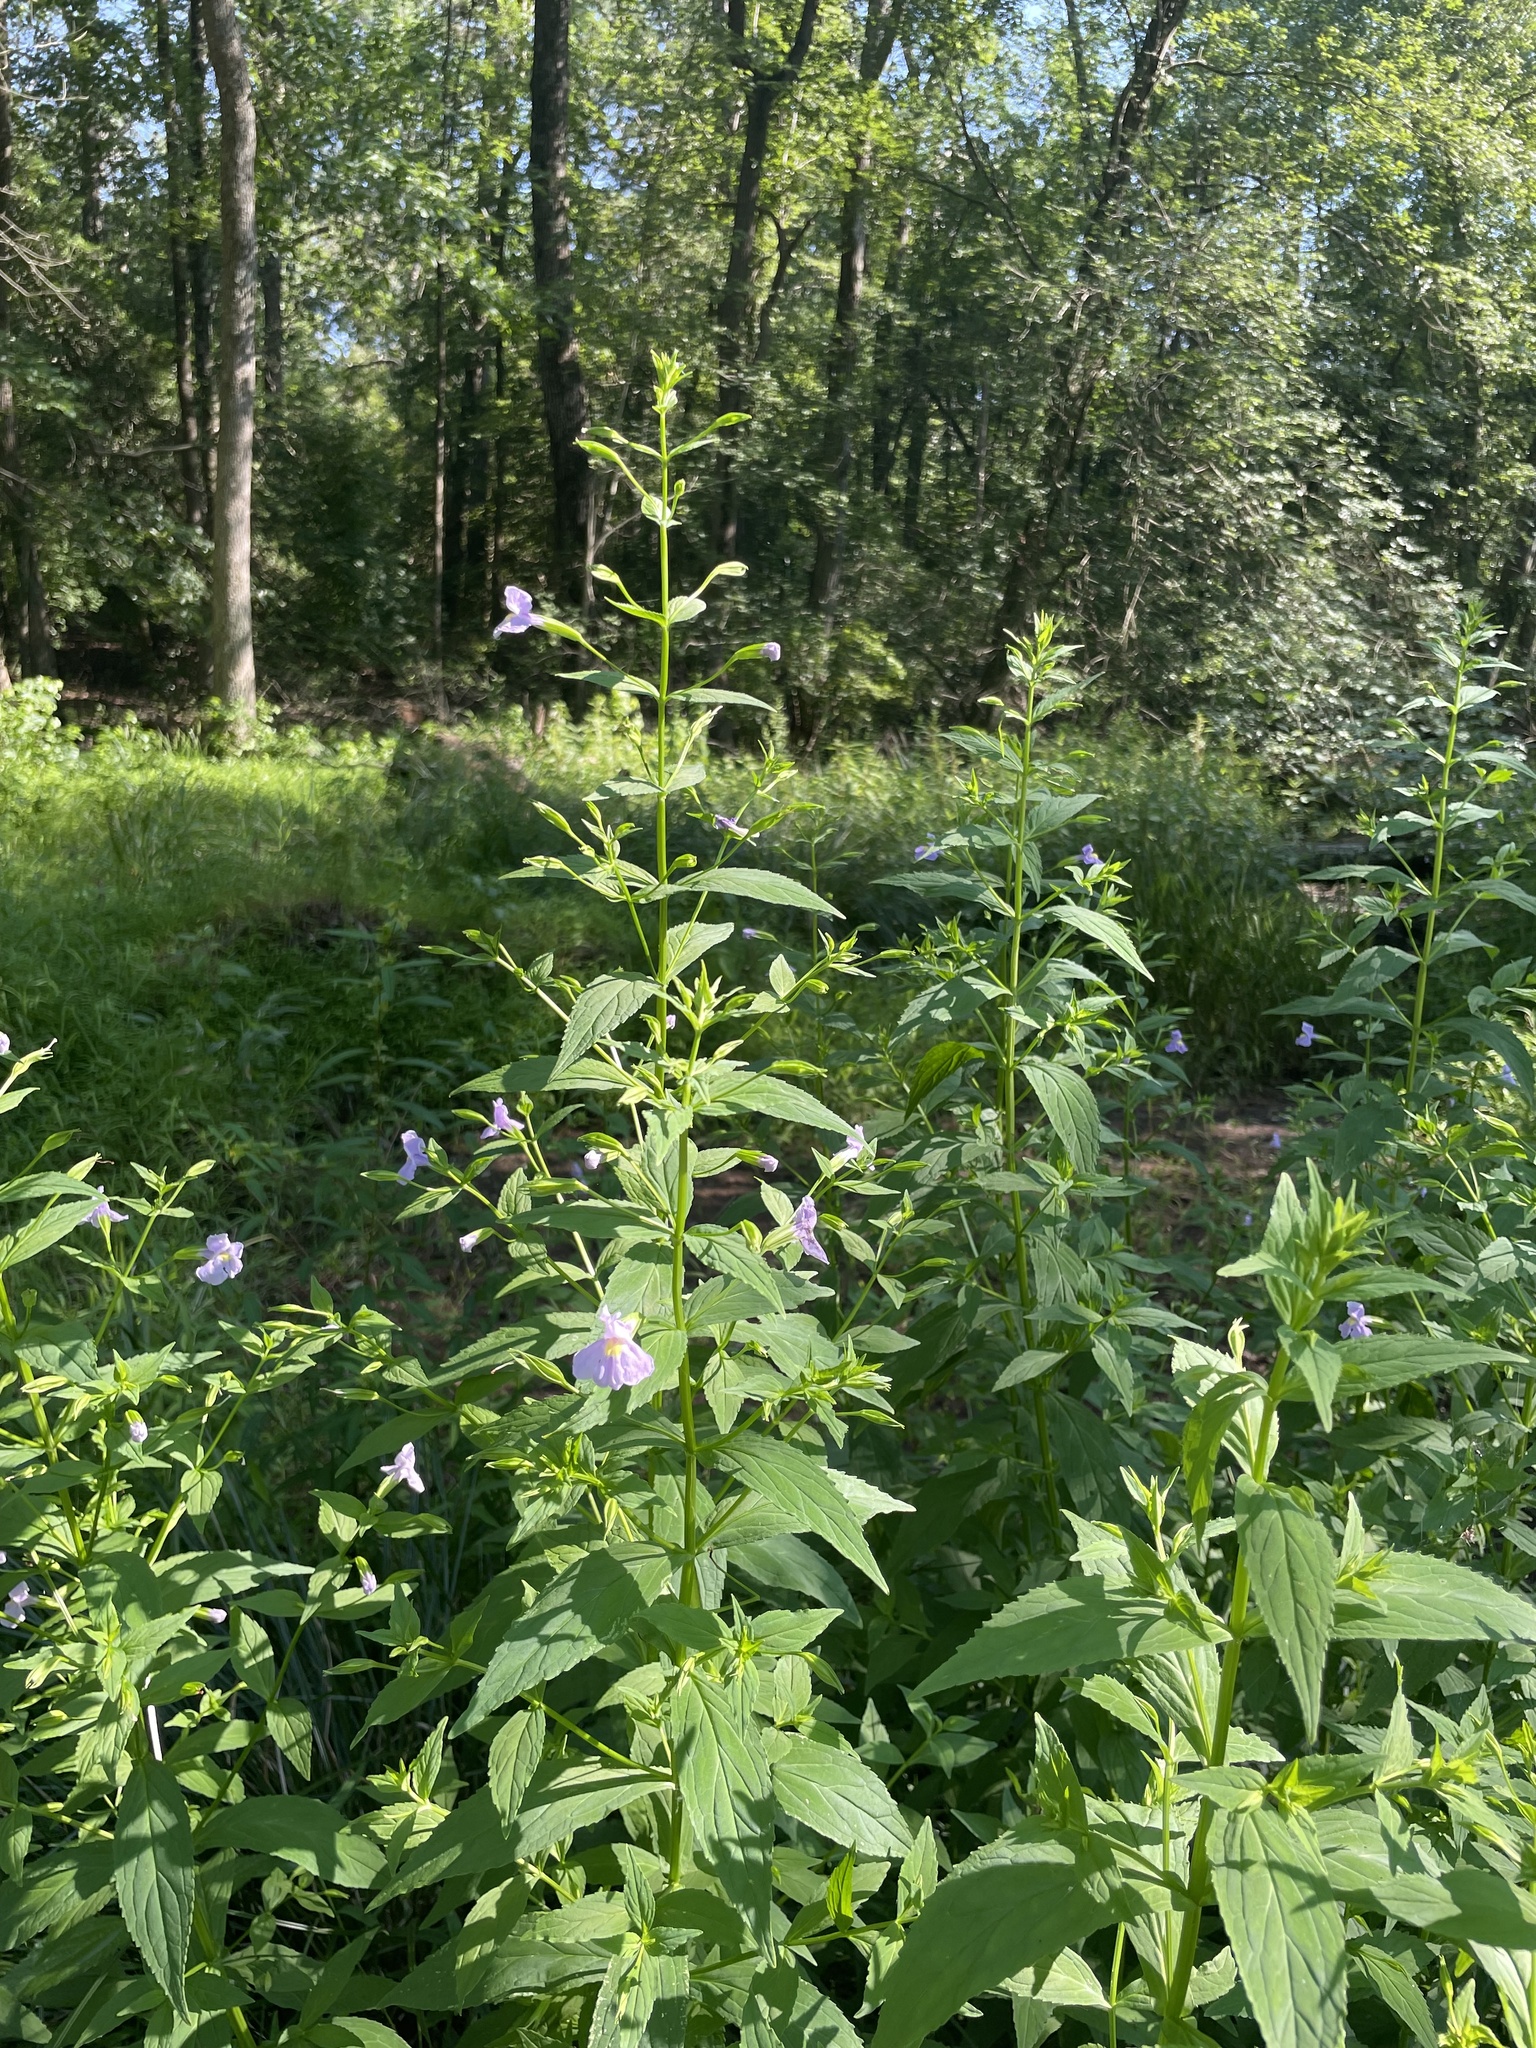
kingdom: Plantae
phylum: Tracheophyta
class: Magnoliopsida
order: Lamiales
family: Phrymaceae
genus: Mimulus
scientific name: Mimulus ringens
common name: Allegheny monkeyflower
